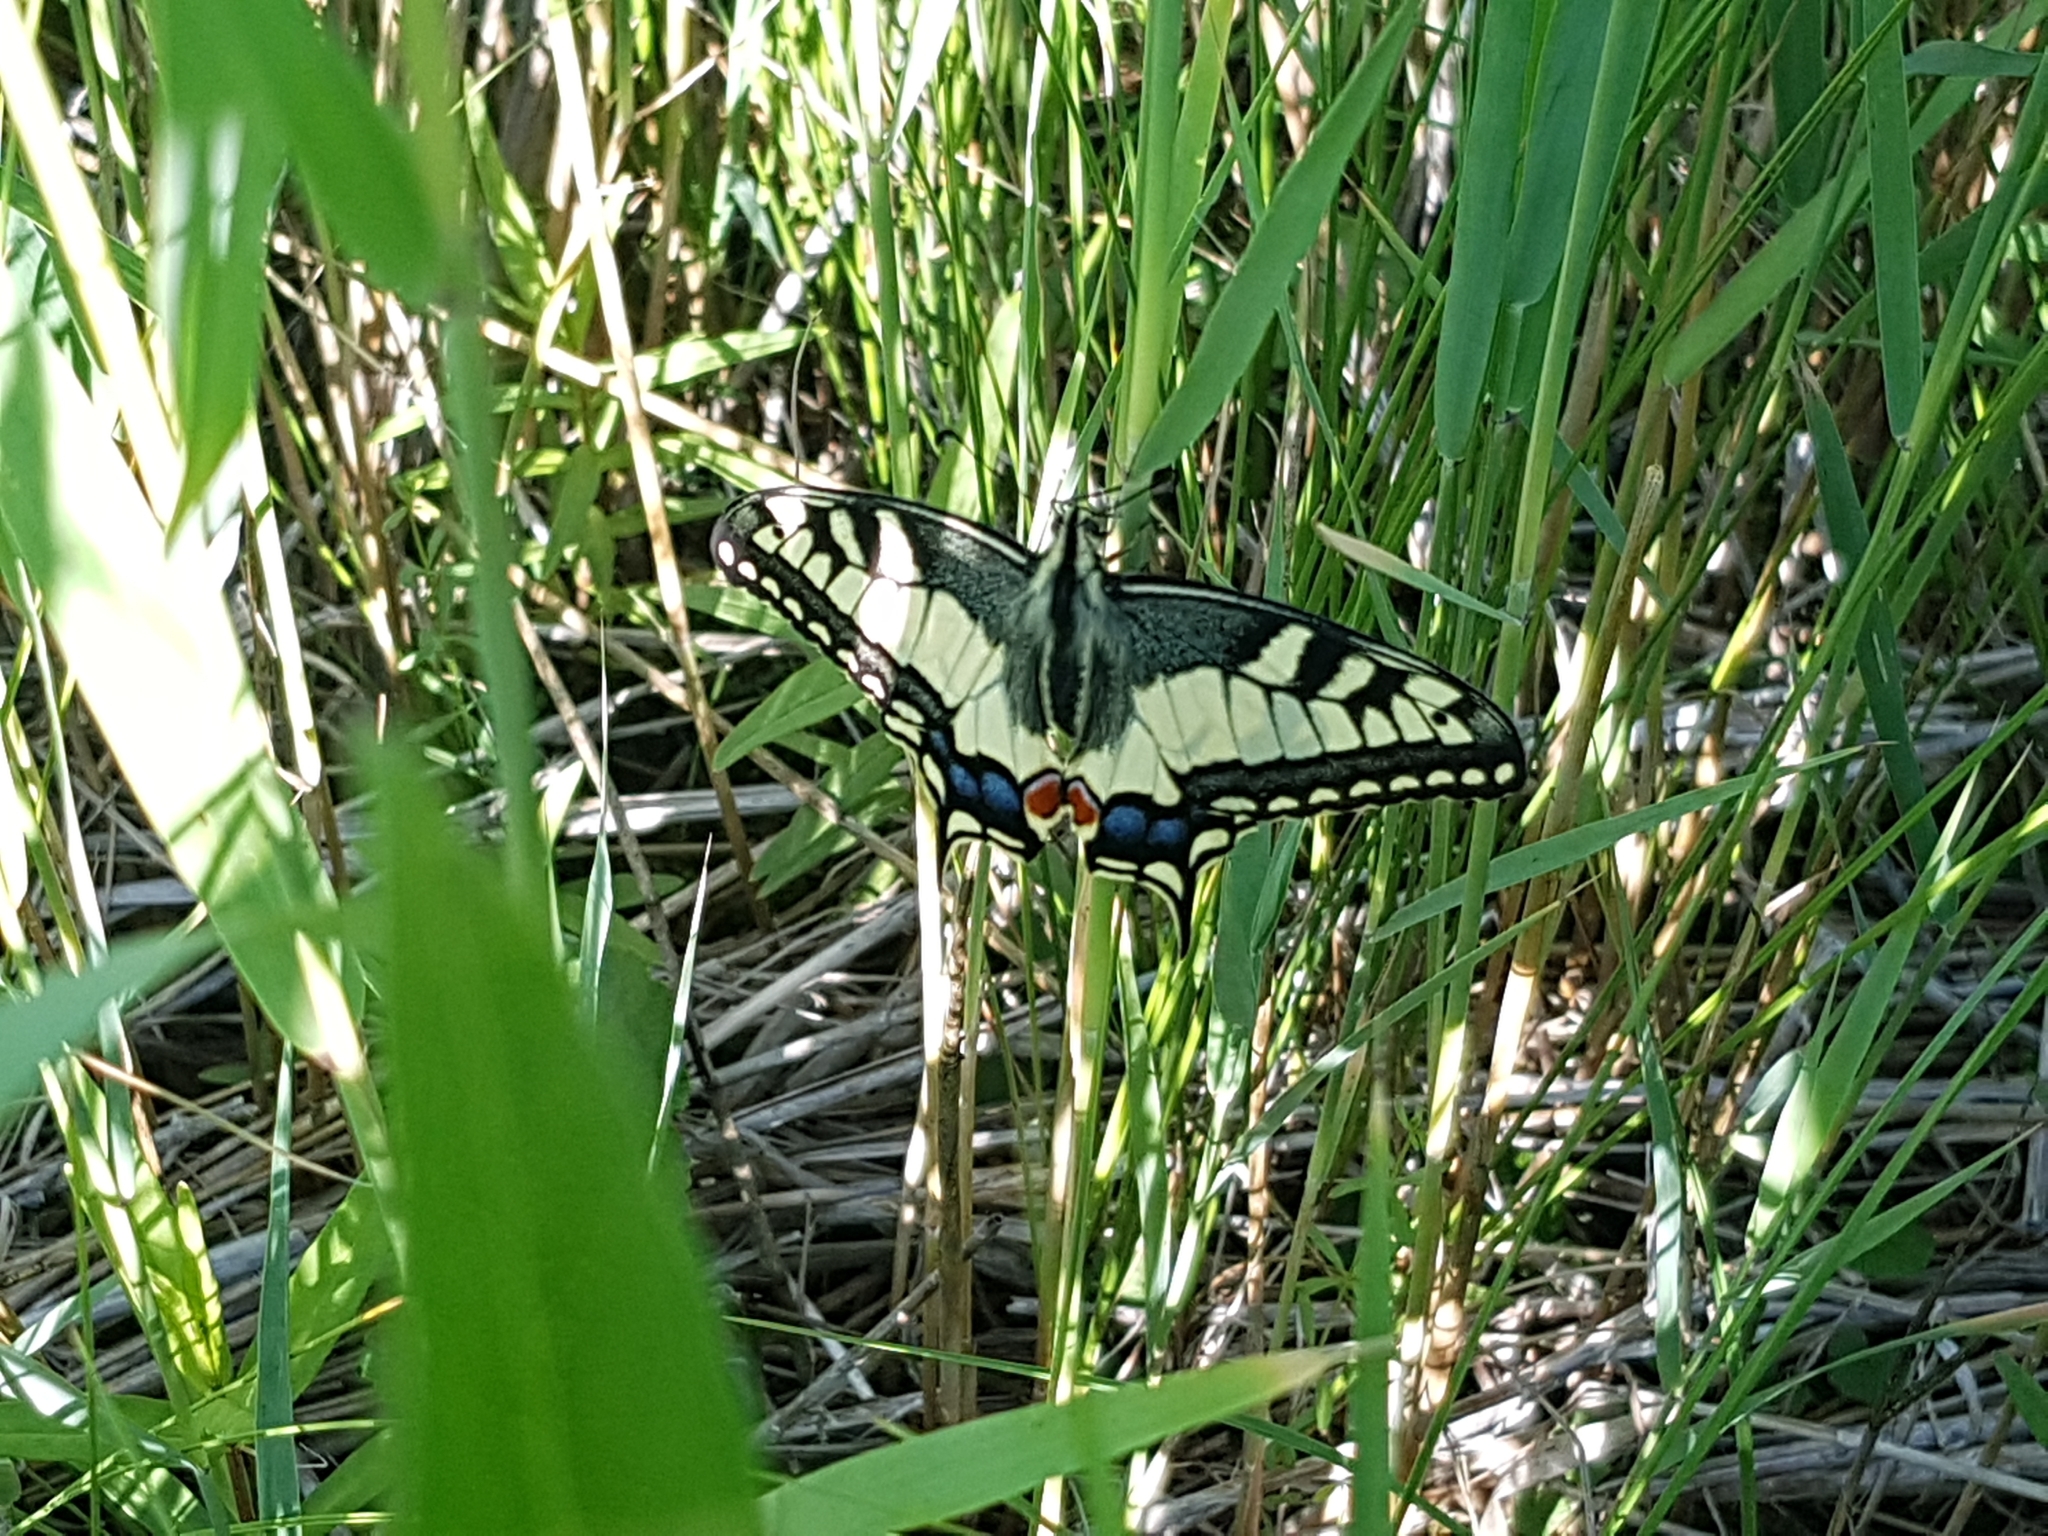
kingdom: Animalia
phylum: Arthropoda
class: Insecta
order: Lepidoptera
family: Papilionidae
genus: Papilio
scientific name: Papilio machaon
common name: Swallowtail
